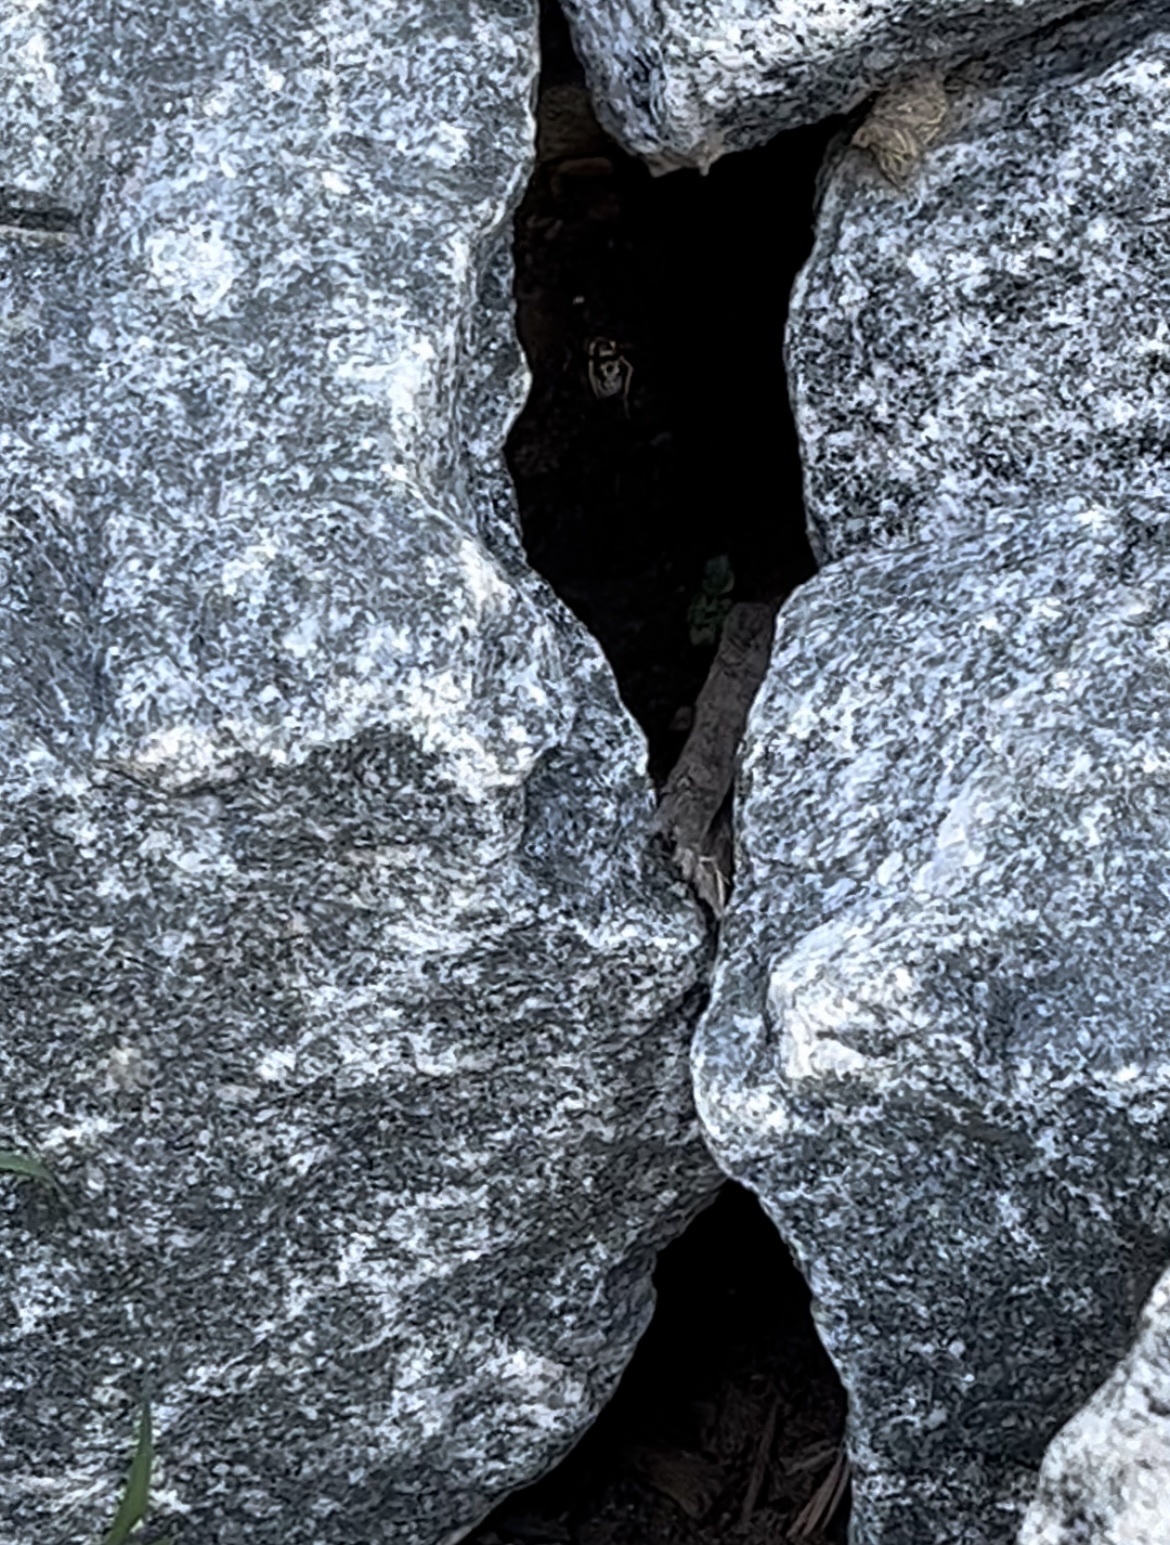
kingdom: Animalia
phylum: Arthropoda
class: Insecta
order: Hymenoptera
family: Sphecidae
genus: Sceliphron
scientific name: Sceliphron caementarium
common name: Mud dauber
